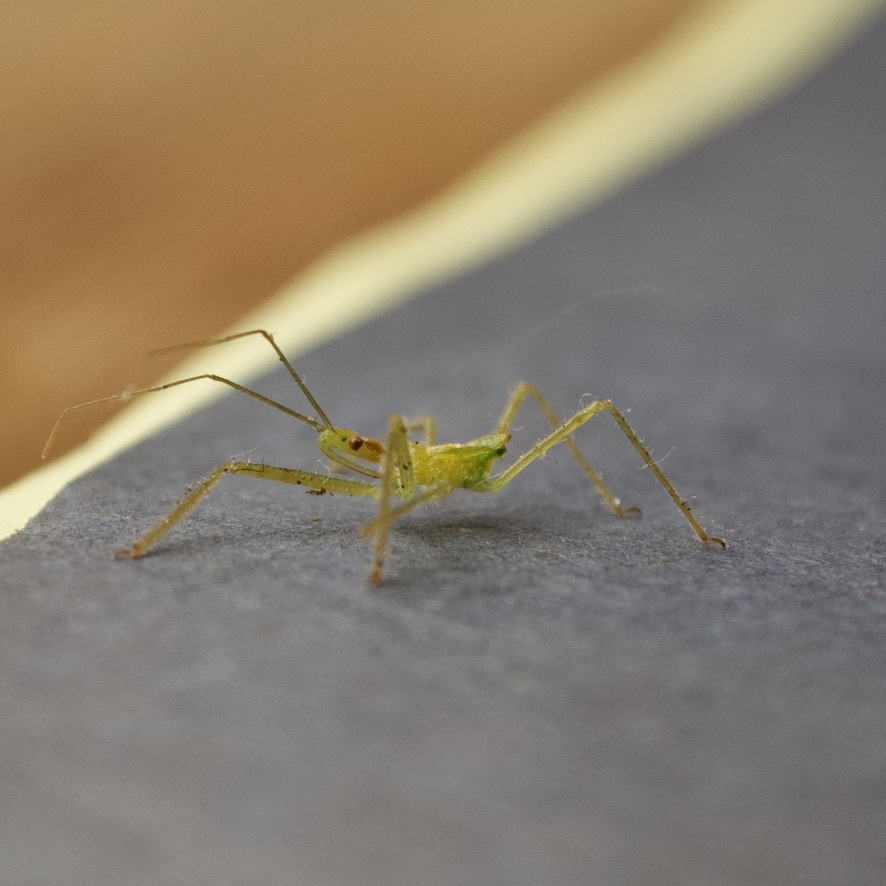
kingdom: Animalia
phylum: Arthropoda
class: Insecta
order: Hemiptera
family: Reduviidae
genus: Zelus
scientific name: Zelus luridus
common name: Pale green assassin bug
